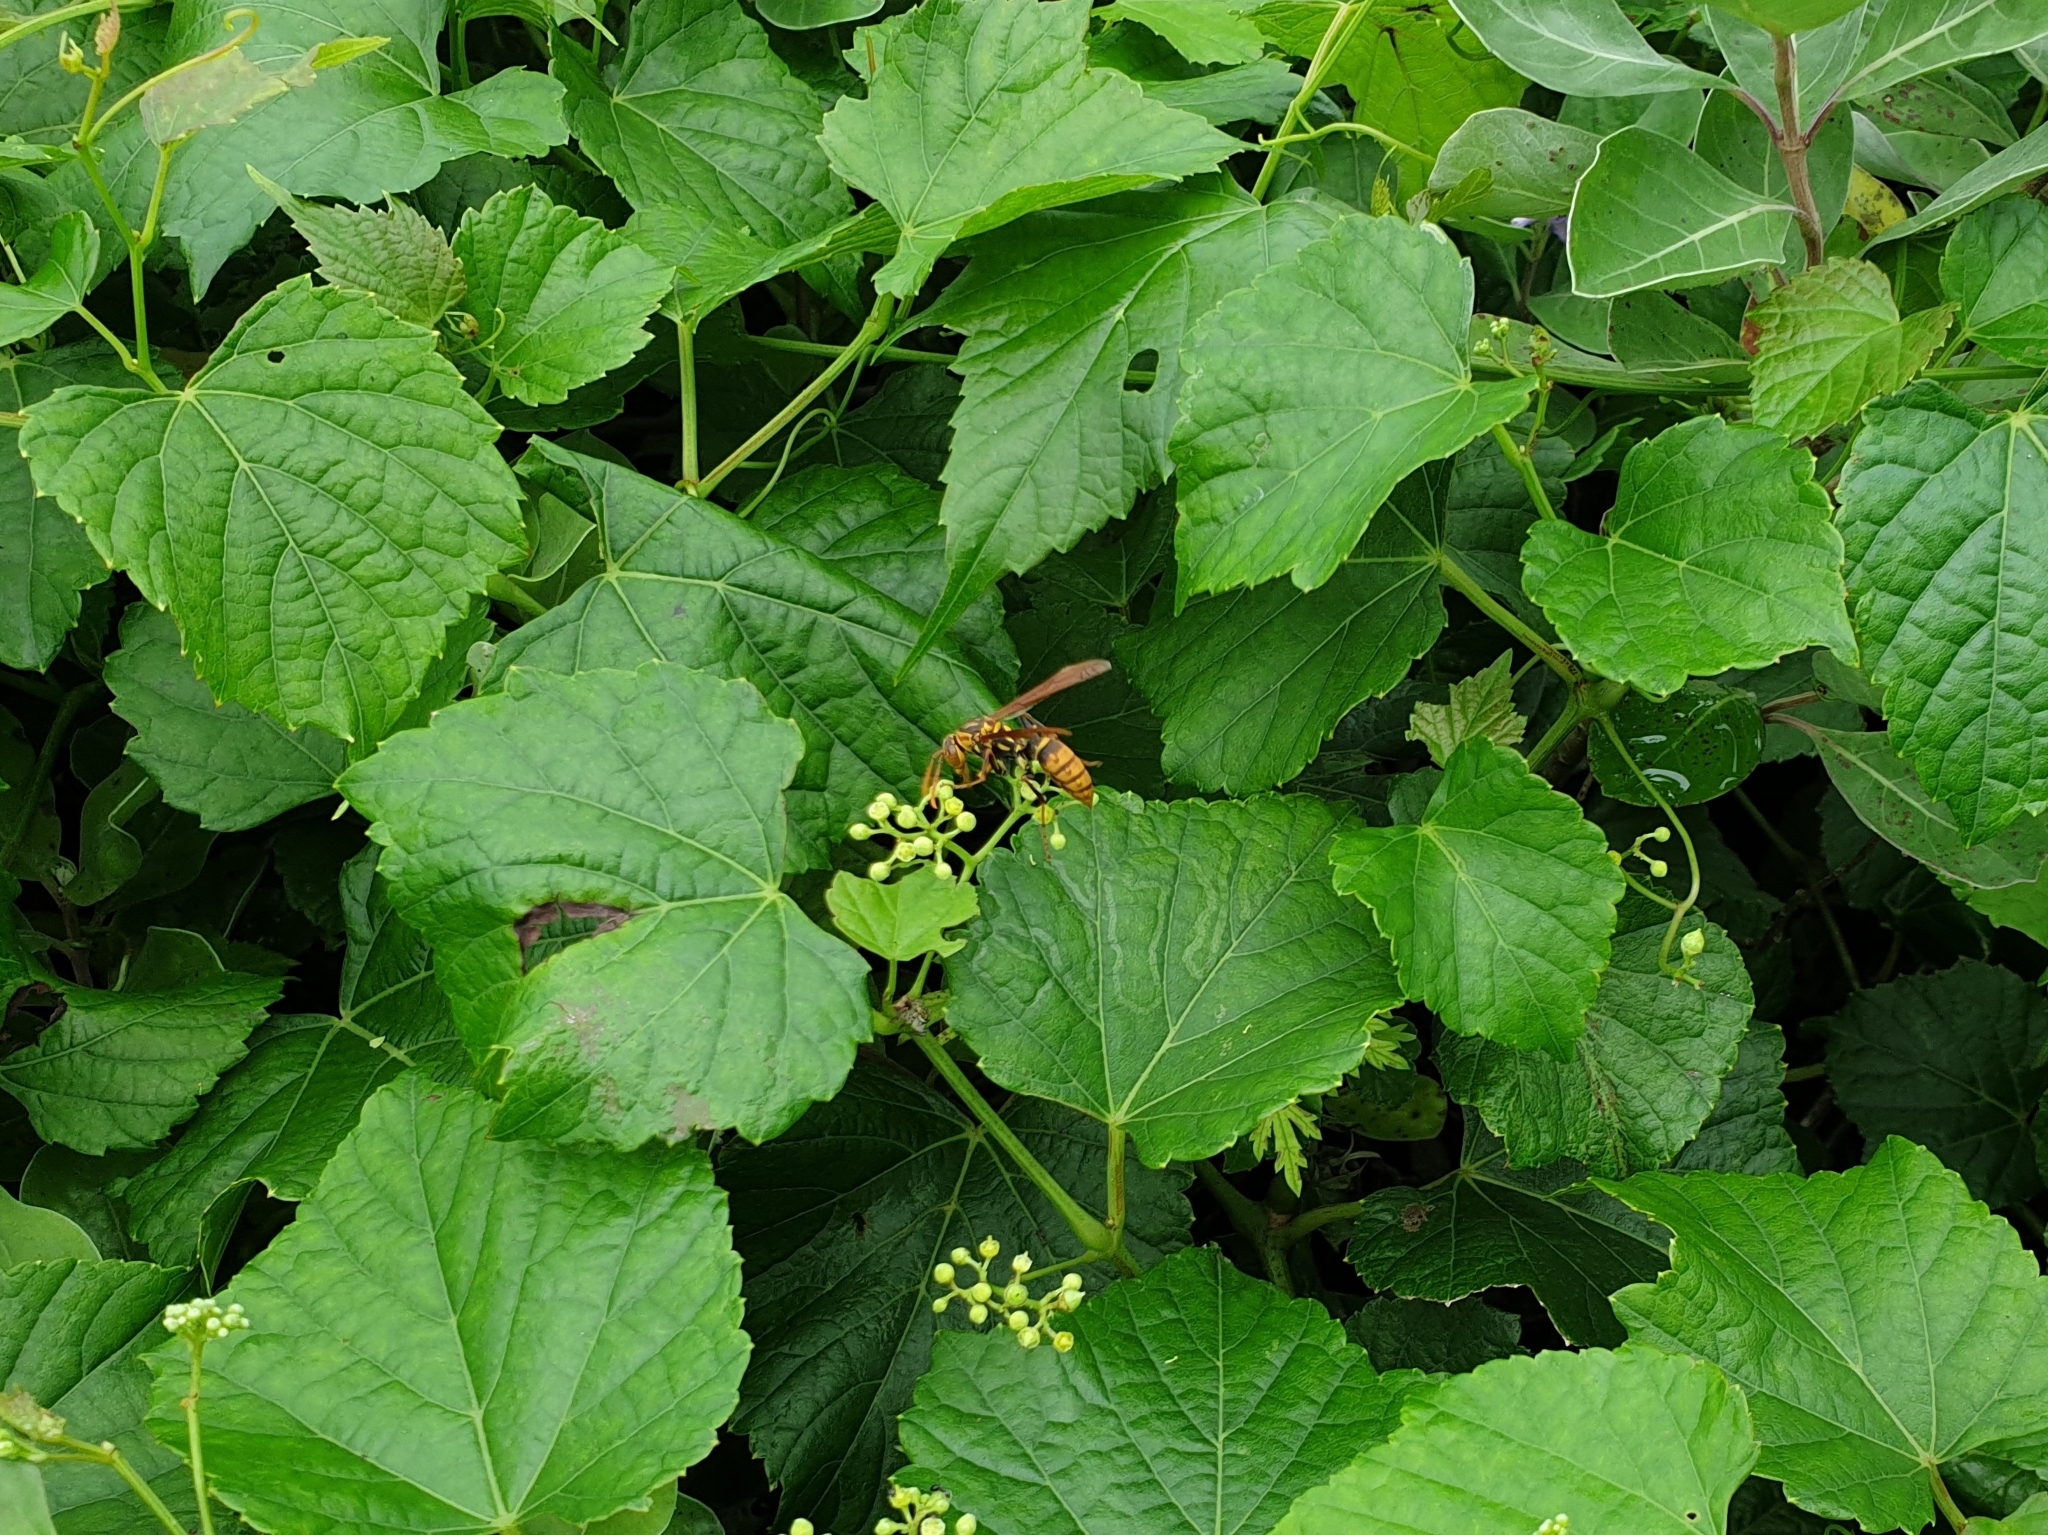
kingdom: Animalia
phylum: Arthropoda
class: Insecta
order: Hymenoptera
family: Eumenidae
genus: Polistes
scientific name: Polistes rothneyi
